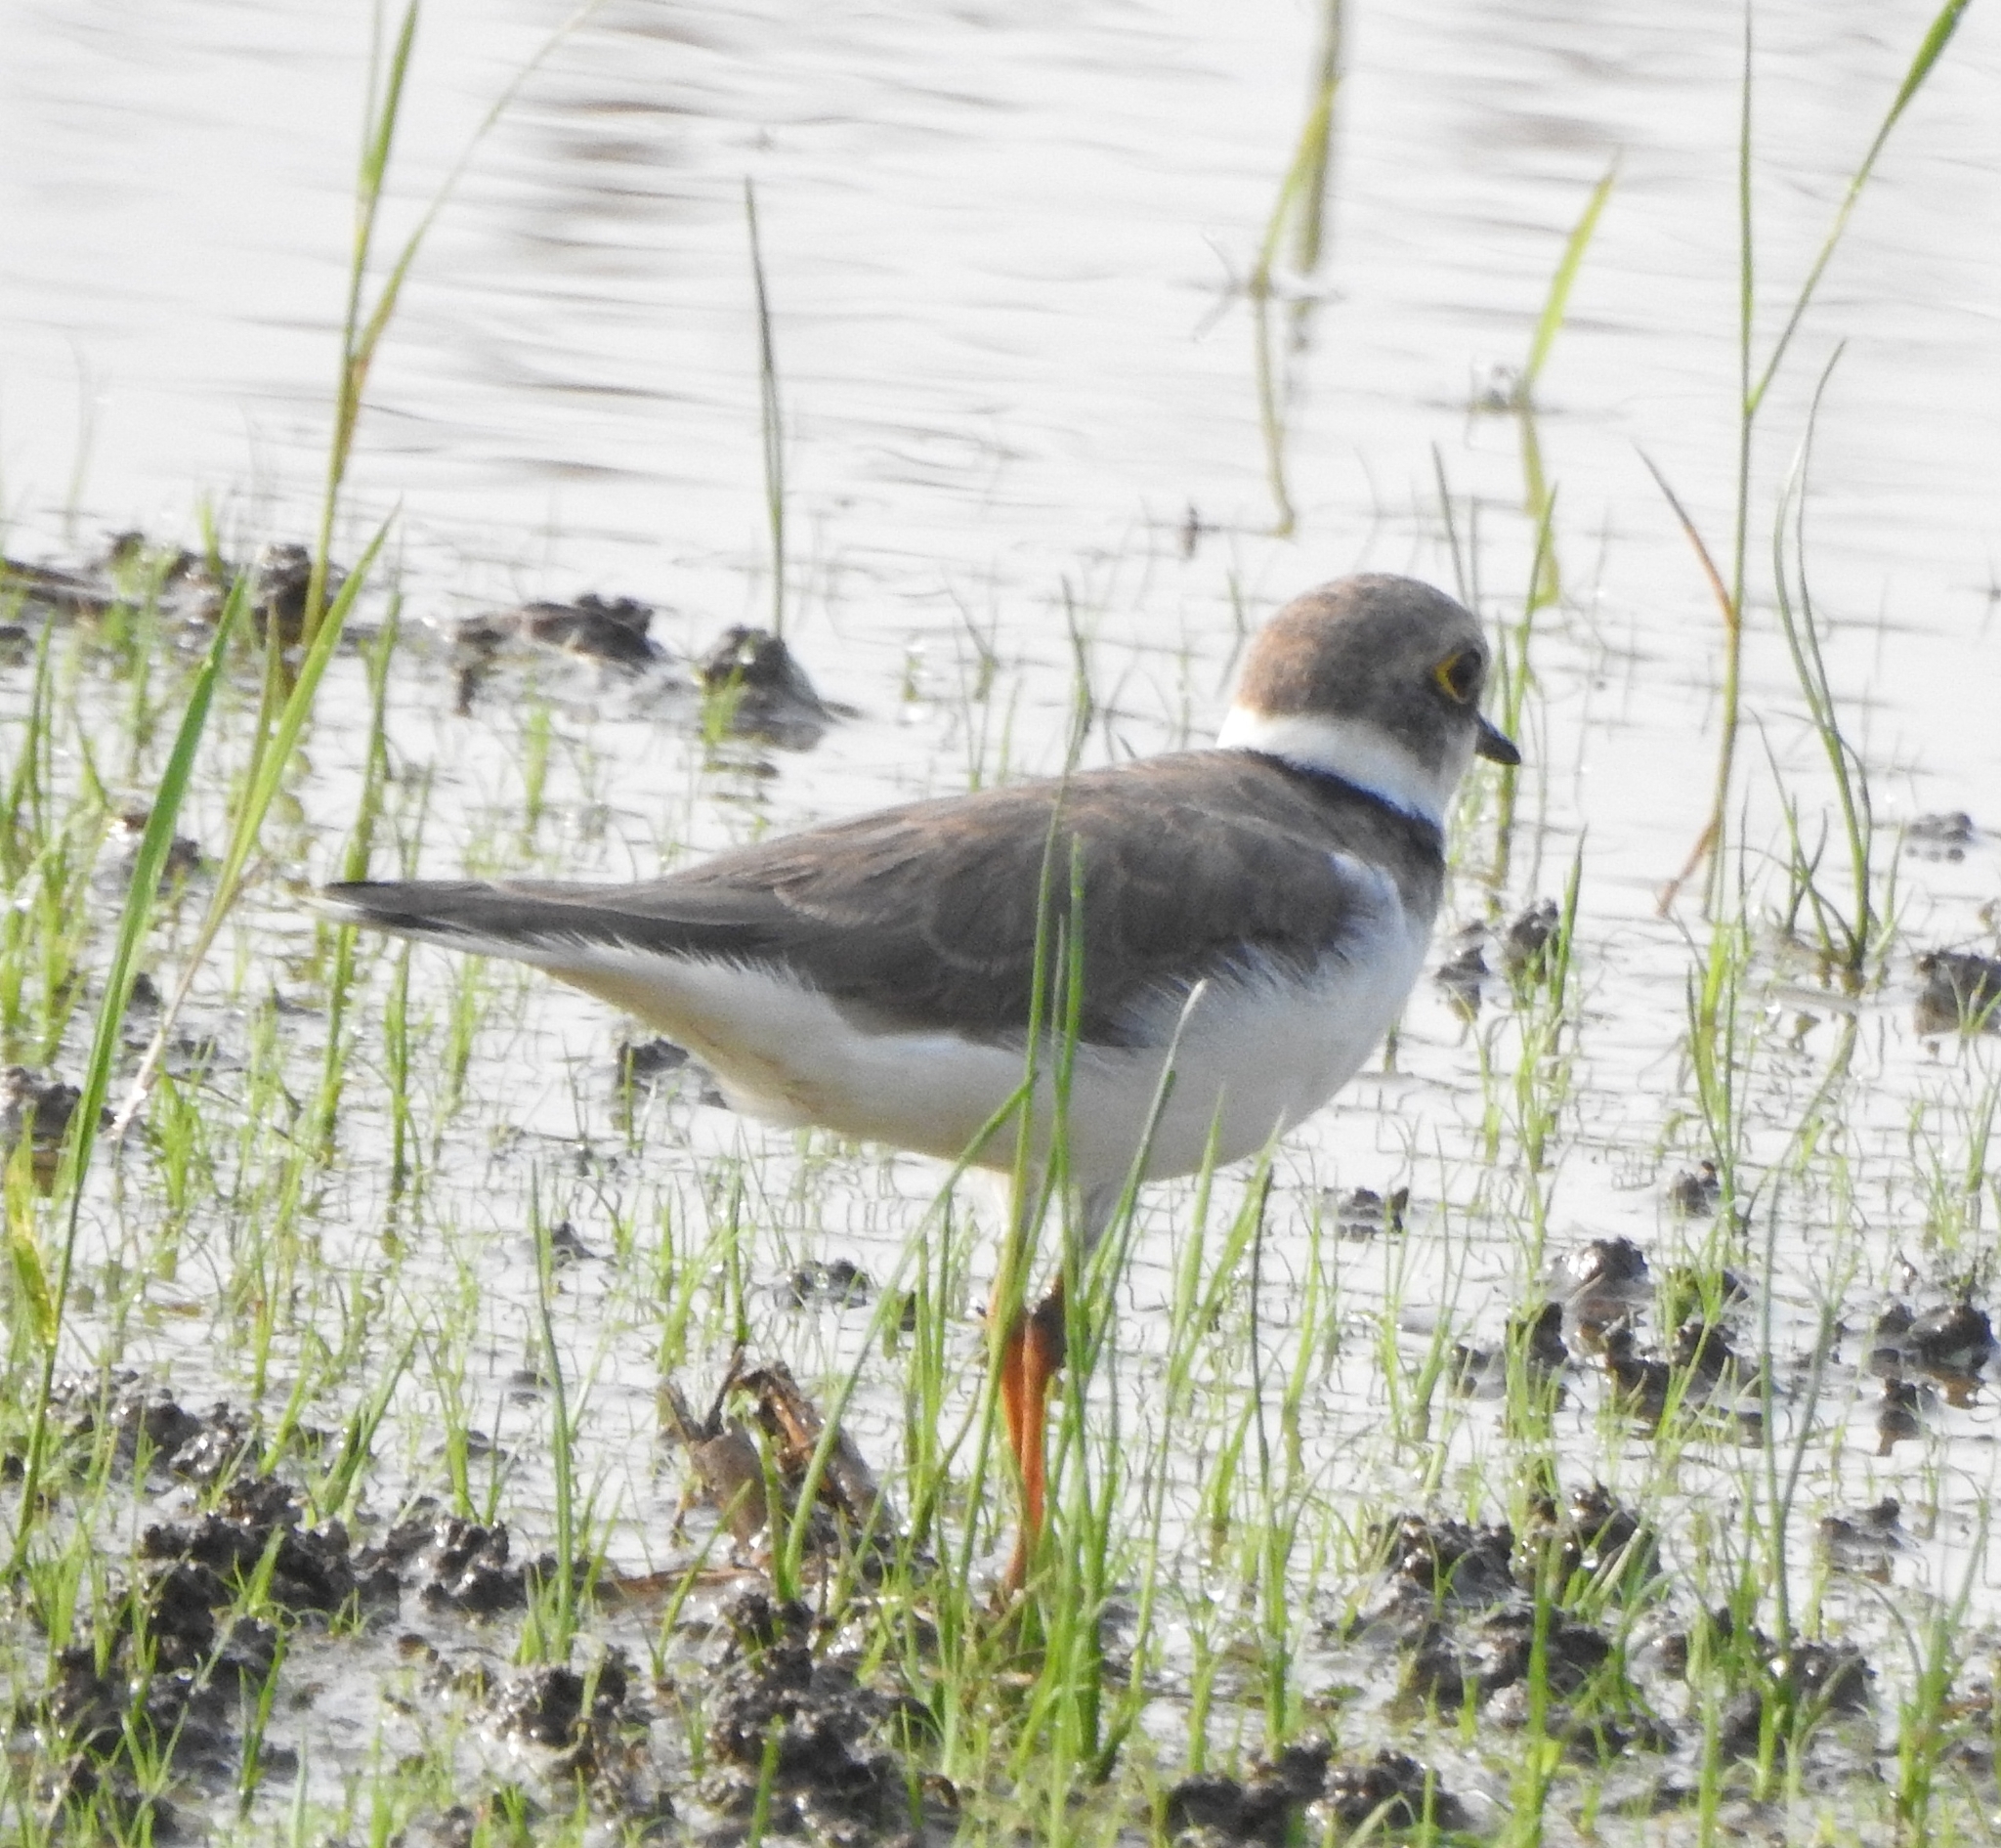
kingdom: Animalia
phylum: Chordata
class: Aves
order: Charadriiformes
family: Charadriidae
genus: Charadrius
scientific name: Charadrius dubius
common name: Little ringed plover
